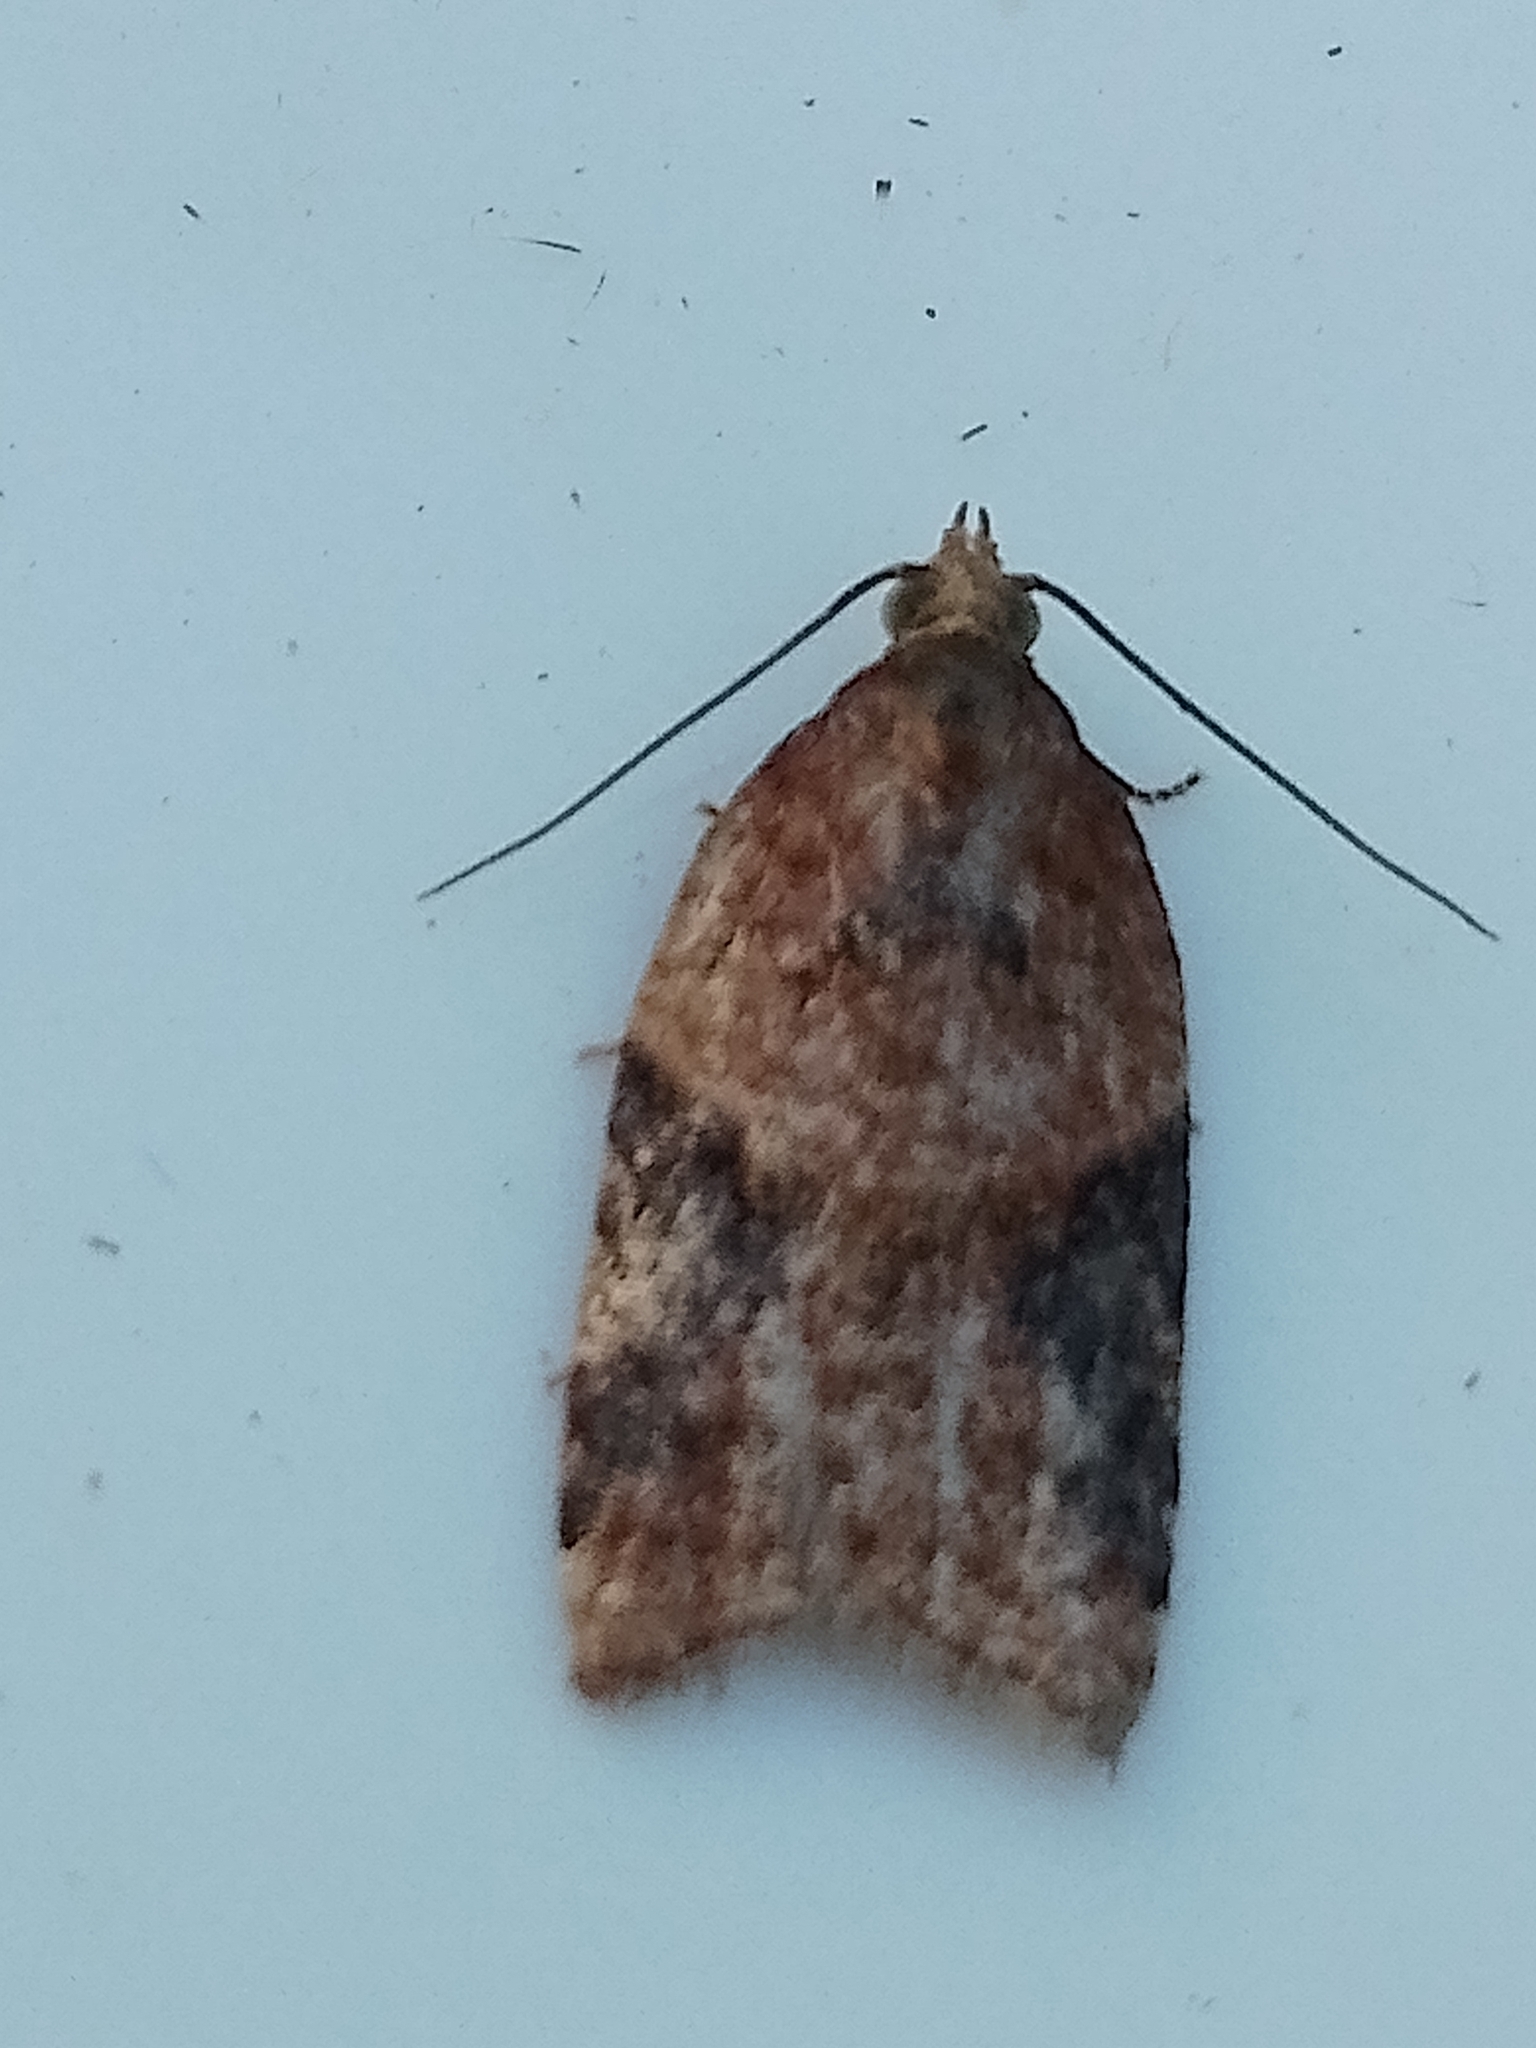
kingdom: Animalia
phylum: Arthropoda
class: Insecta
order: Lepidoptera
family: Tortricidae
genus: Acleris
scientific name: Acleris laterana
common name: Dark-triangle button
